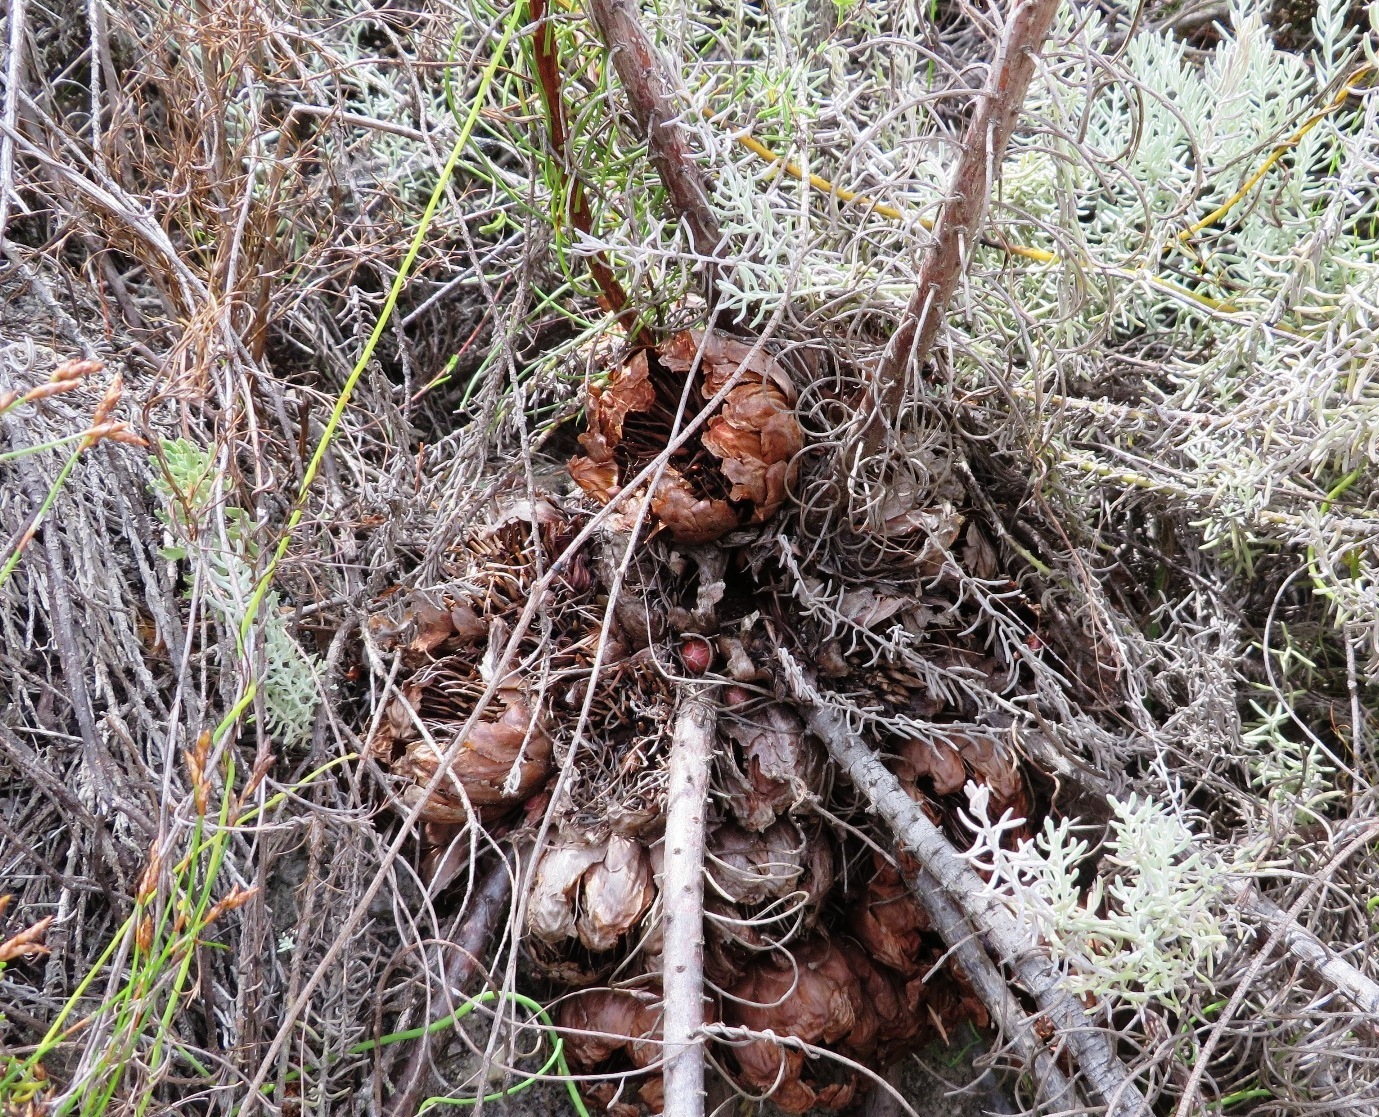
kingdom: Plantae
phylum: Tracheophyta
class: Magnoliopsida
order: Proteales
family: Proteaceae
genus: Protea
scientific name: Protea subulifolia
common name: Awl-leaf sugarbush
